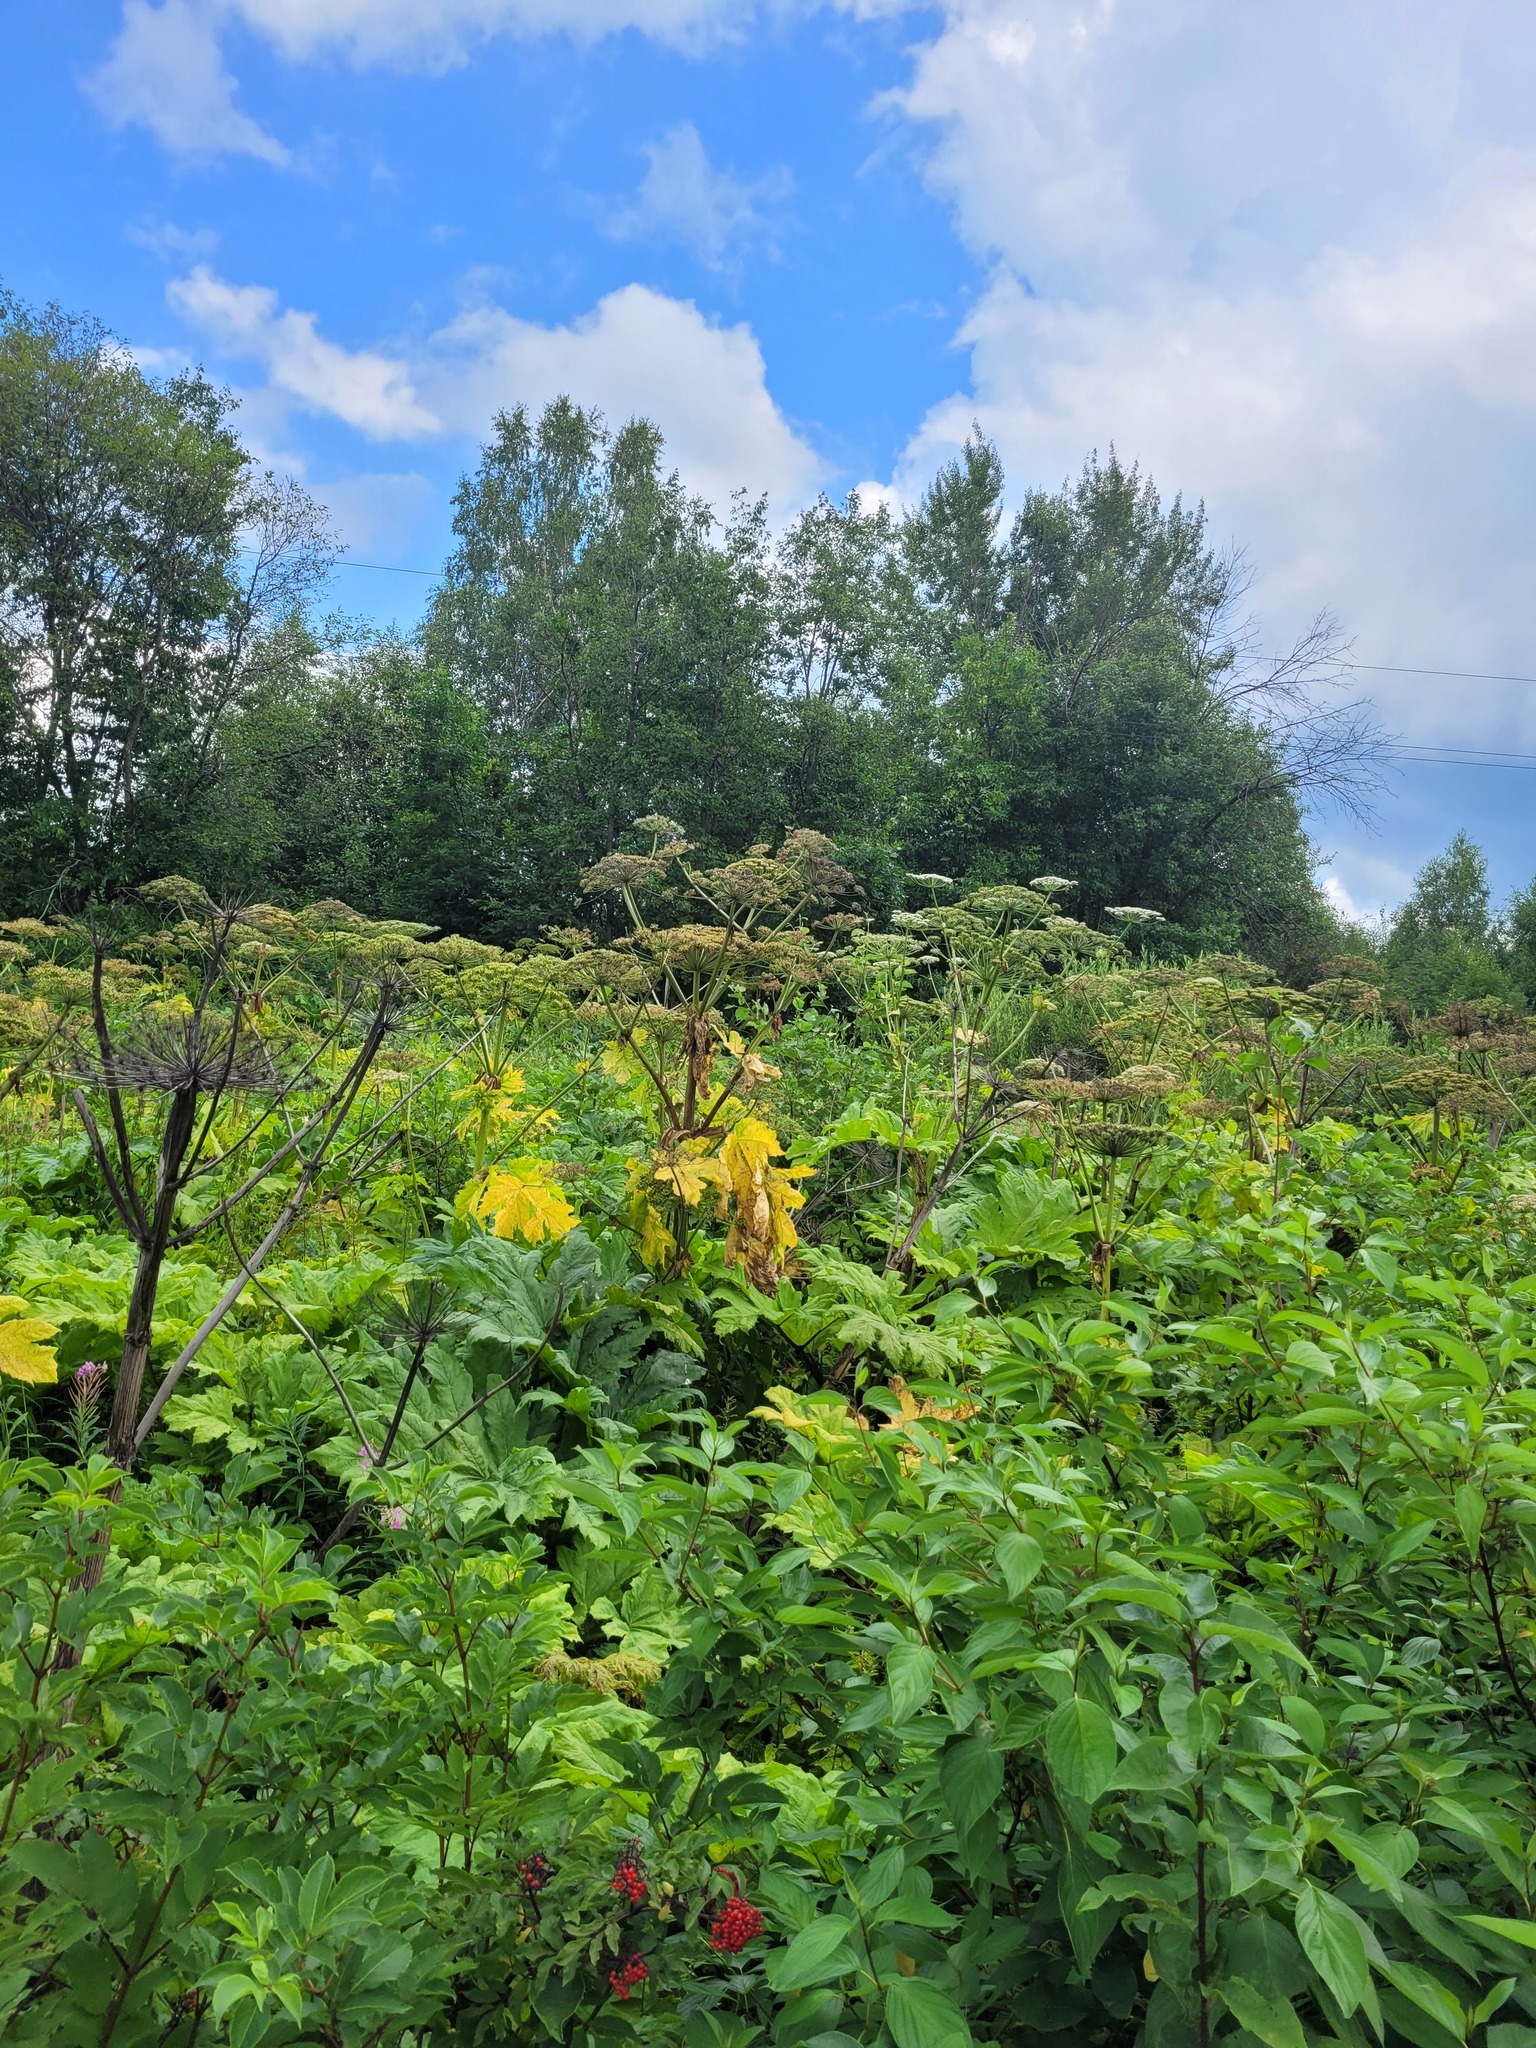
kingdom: Plantae
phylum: Tracheophyta
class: Magnoliopsida
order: Apiales
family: Apiaceae
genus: Heracleum
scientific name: Heracleum sosnowskyi
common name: Sosnowsky's hogweed
